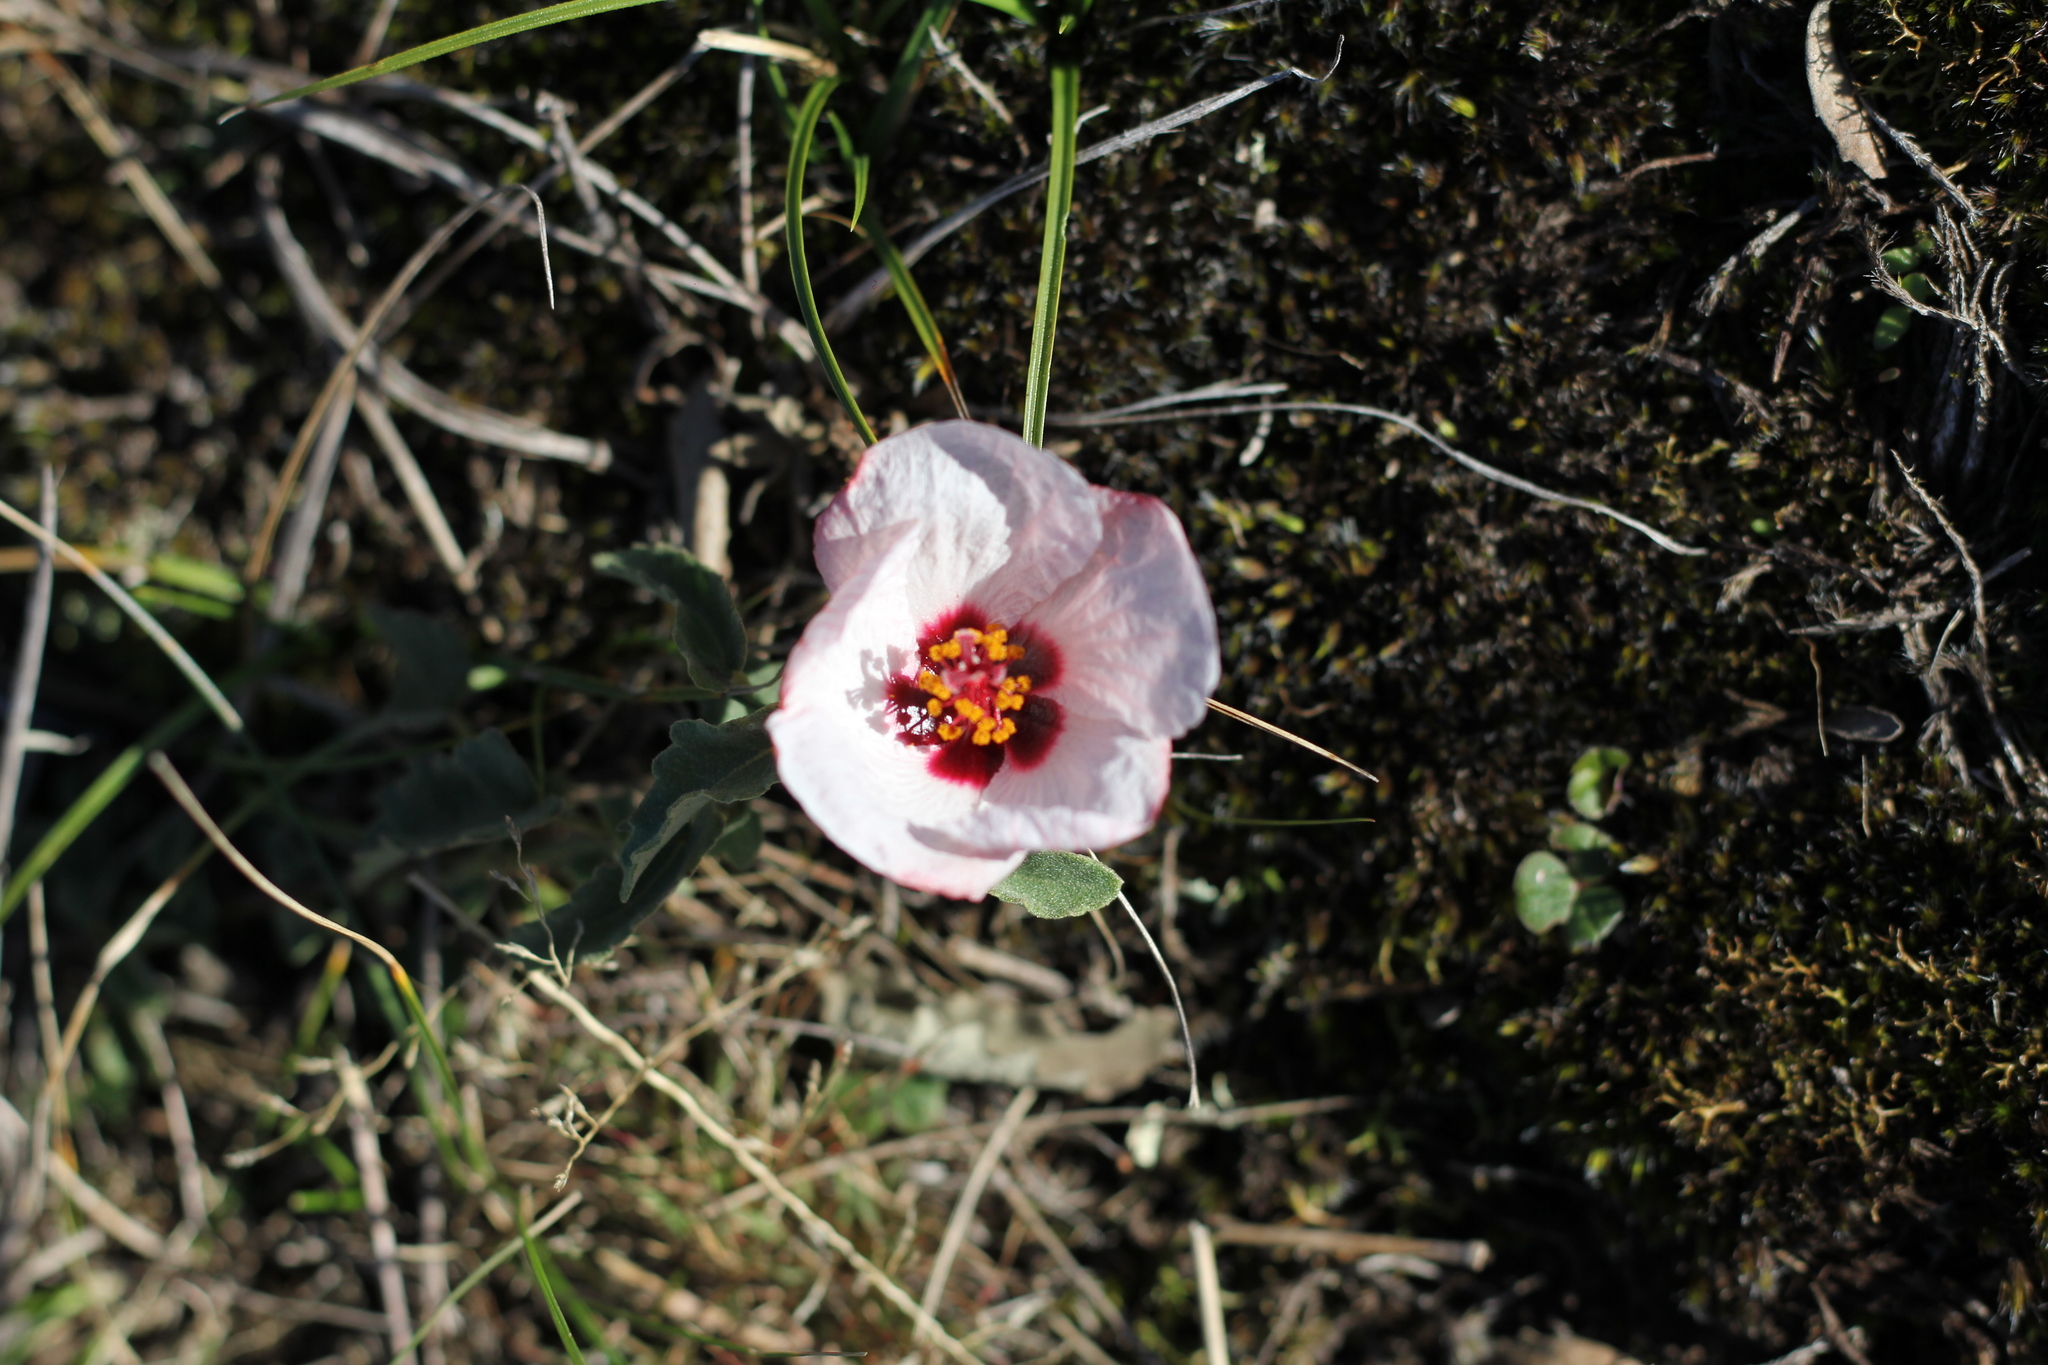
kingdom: Plantae
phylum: Tracheophyta
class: Magnoliopsida
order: Malvales
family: Malvaceae
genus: Pavonia
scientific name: Pavonia cymbalaria
